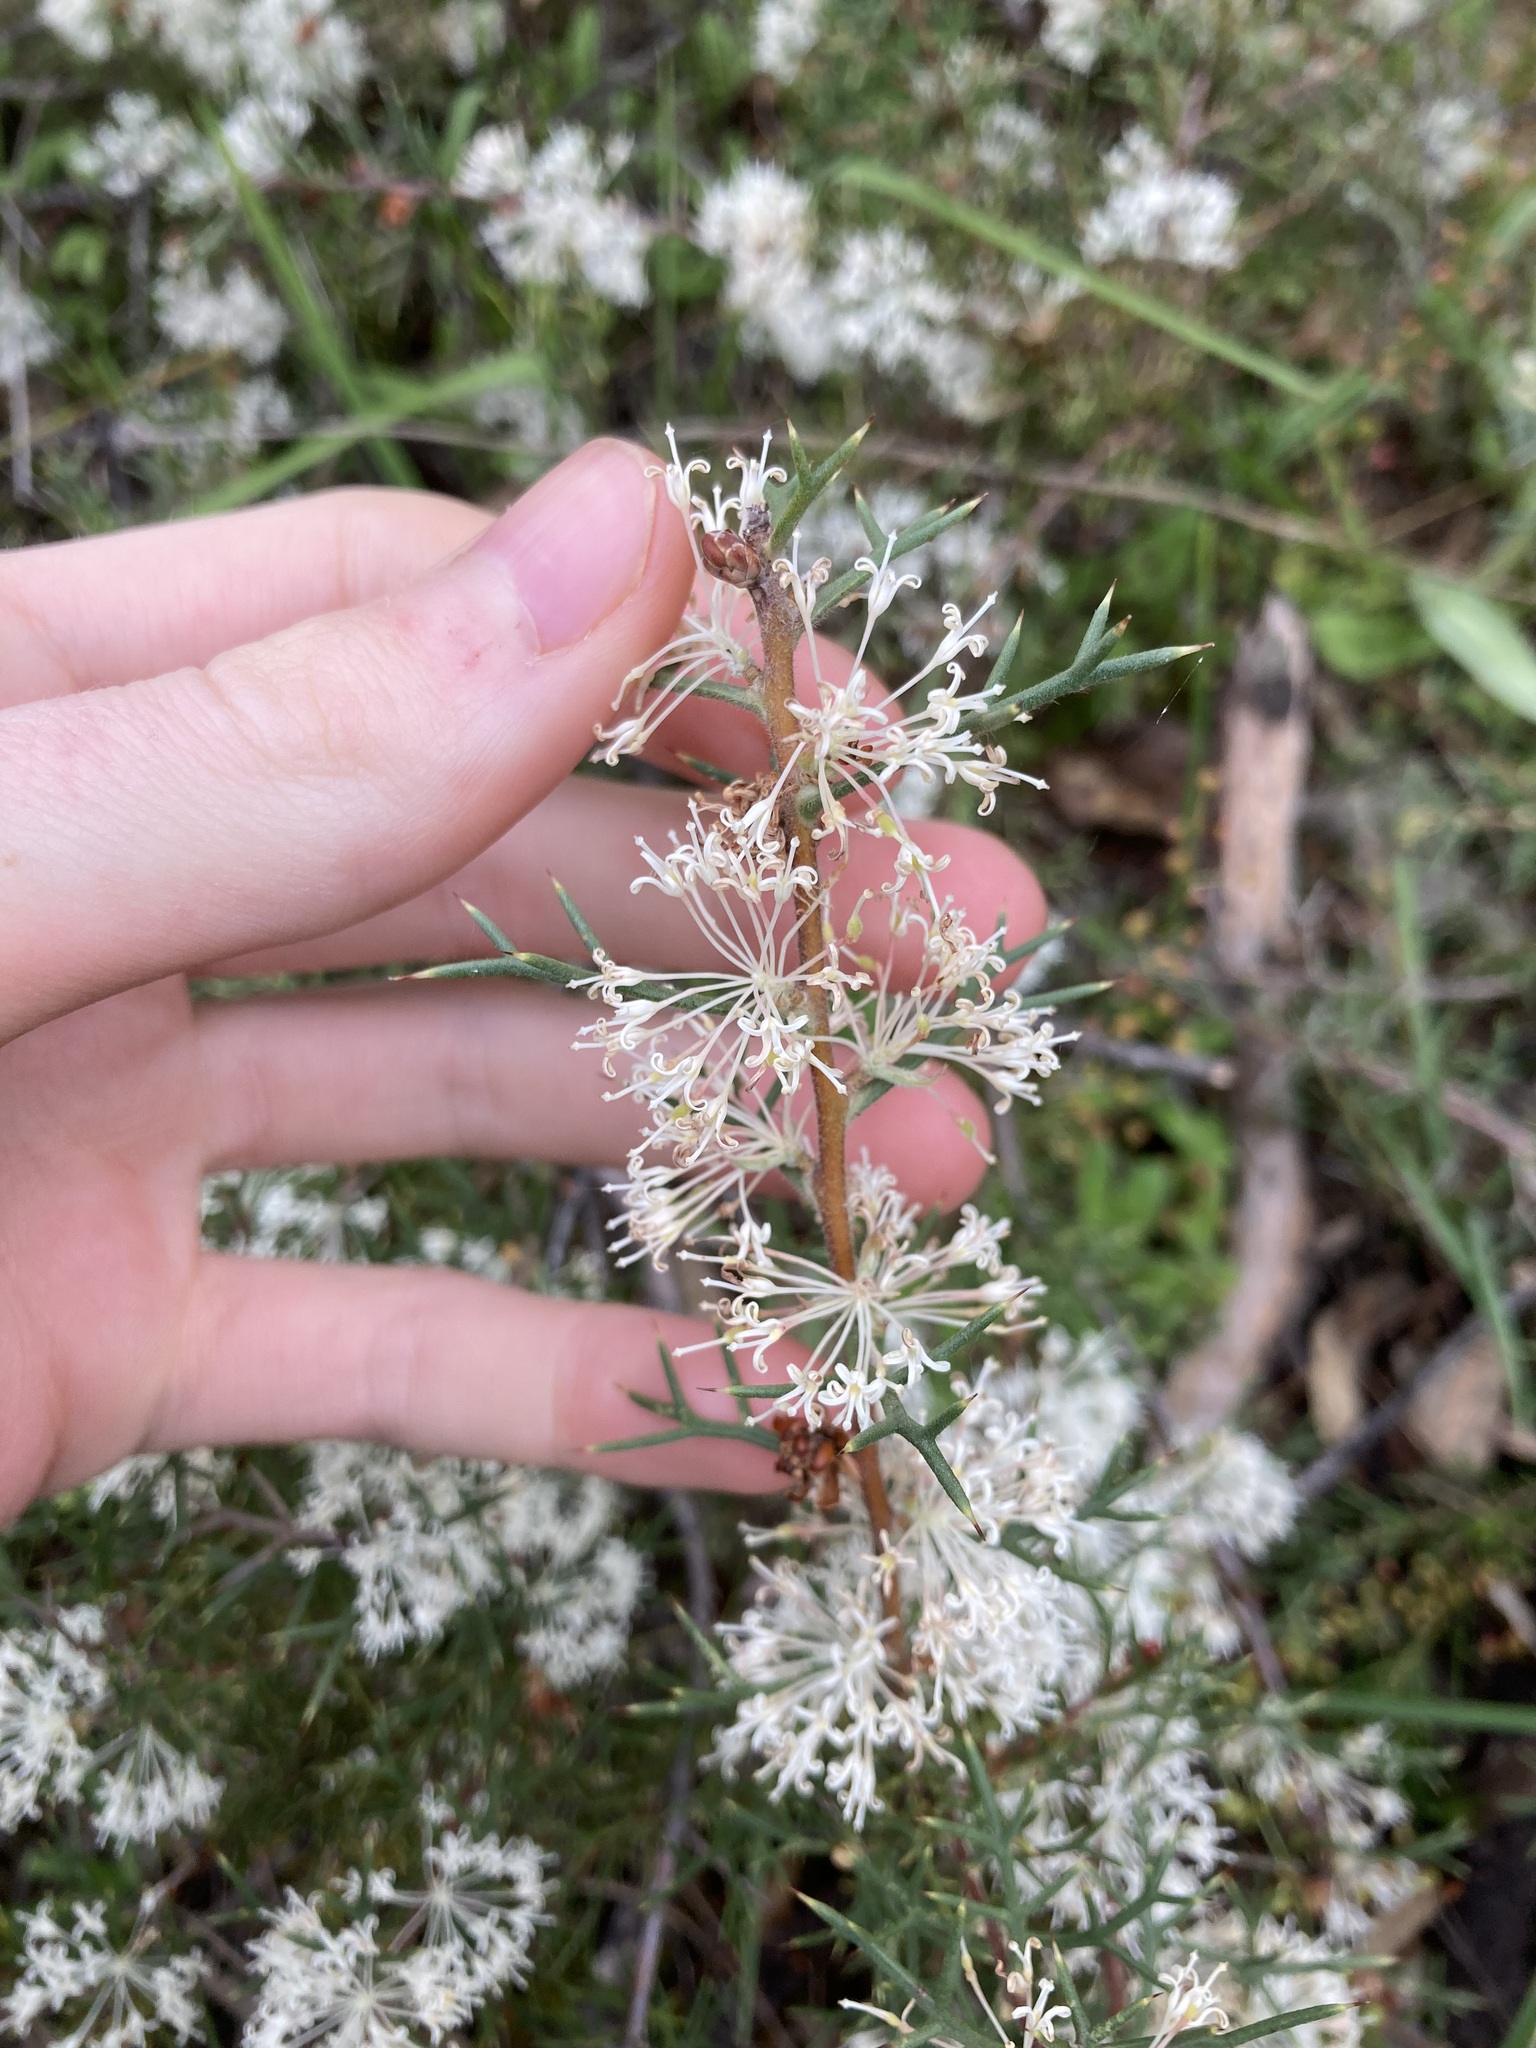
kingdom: Plantae
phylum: Tracheophyta
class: Magnoliopsida
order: Proteales
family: Proteaceae
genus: Hakea
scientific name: Hakea lissocarpha
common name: Honey bush
